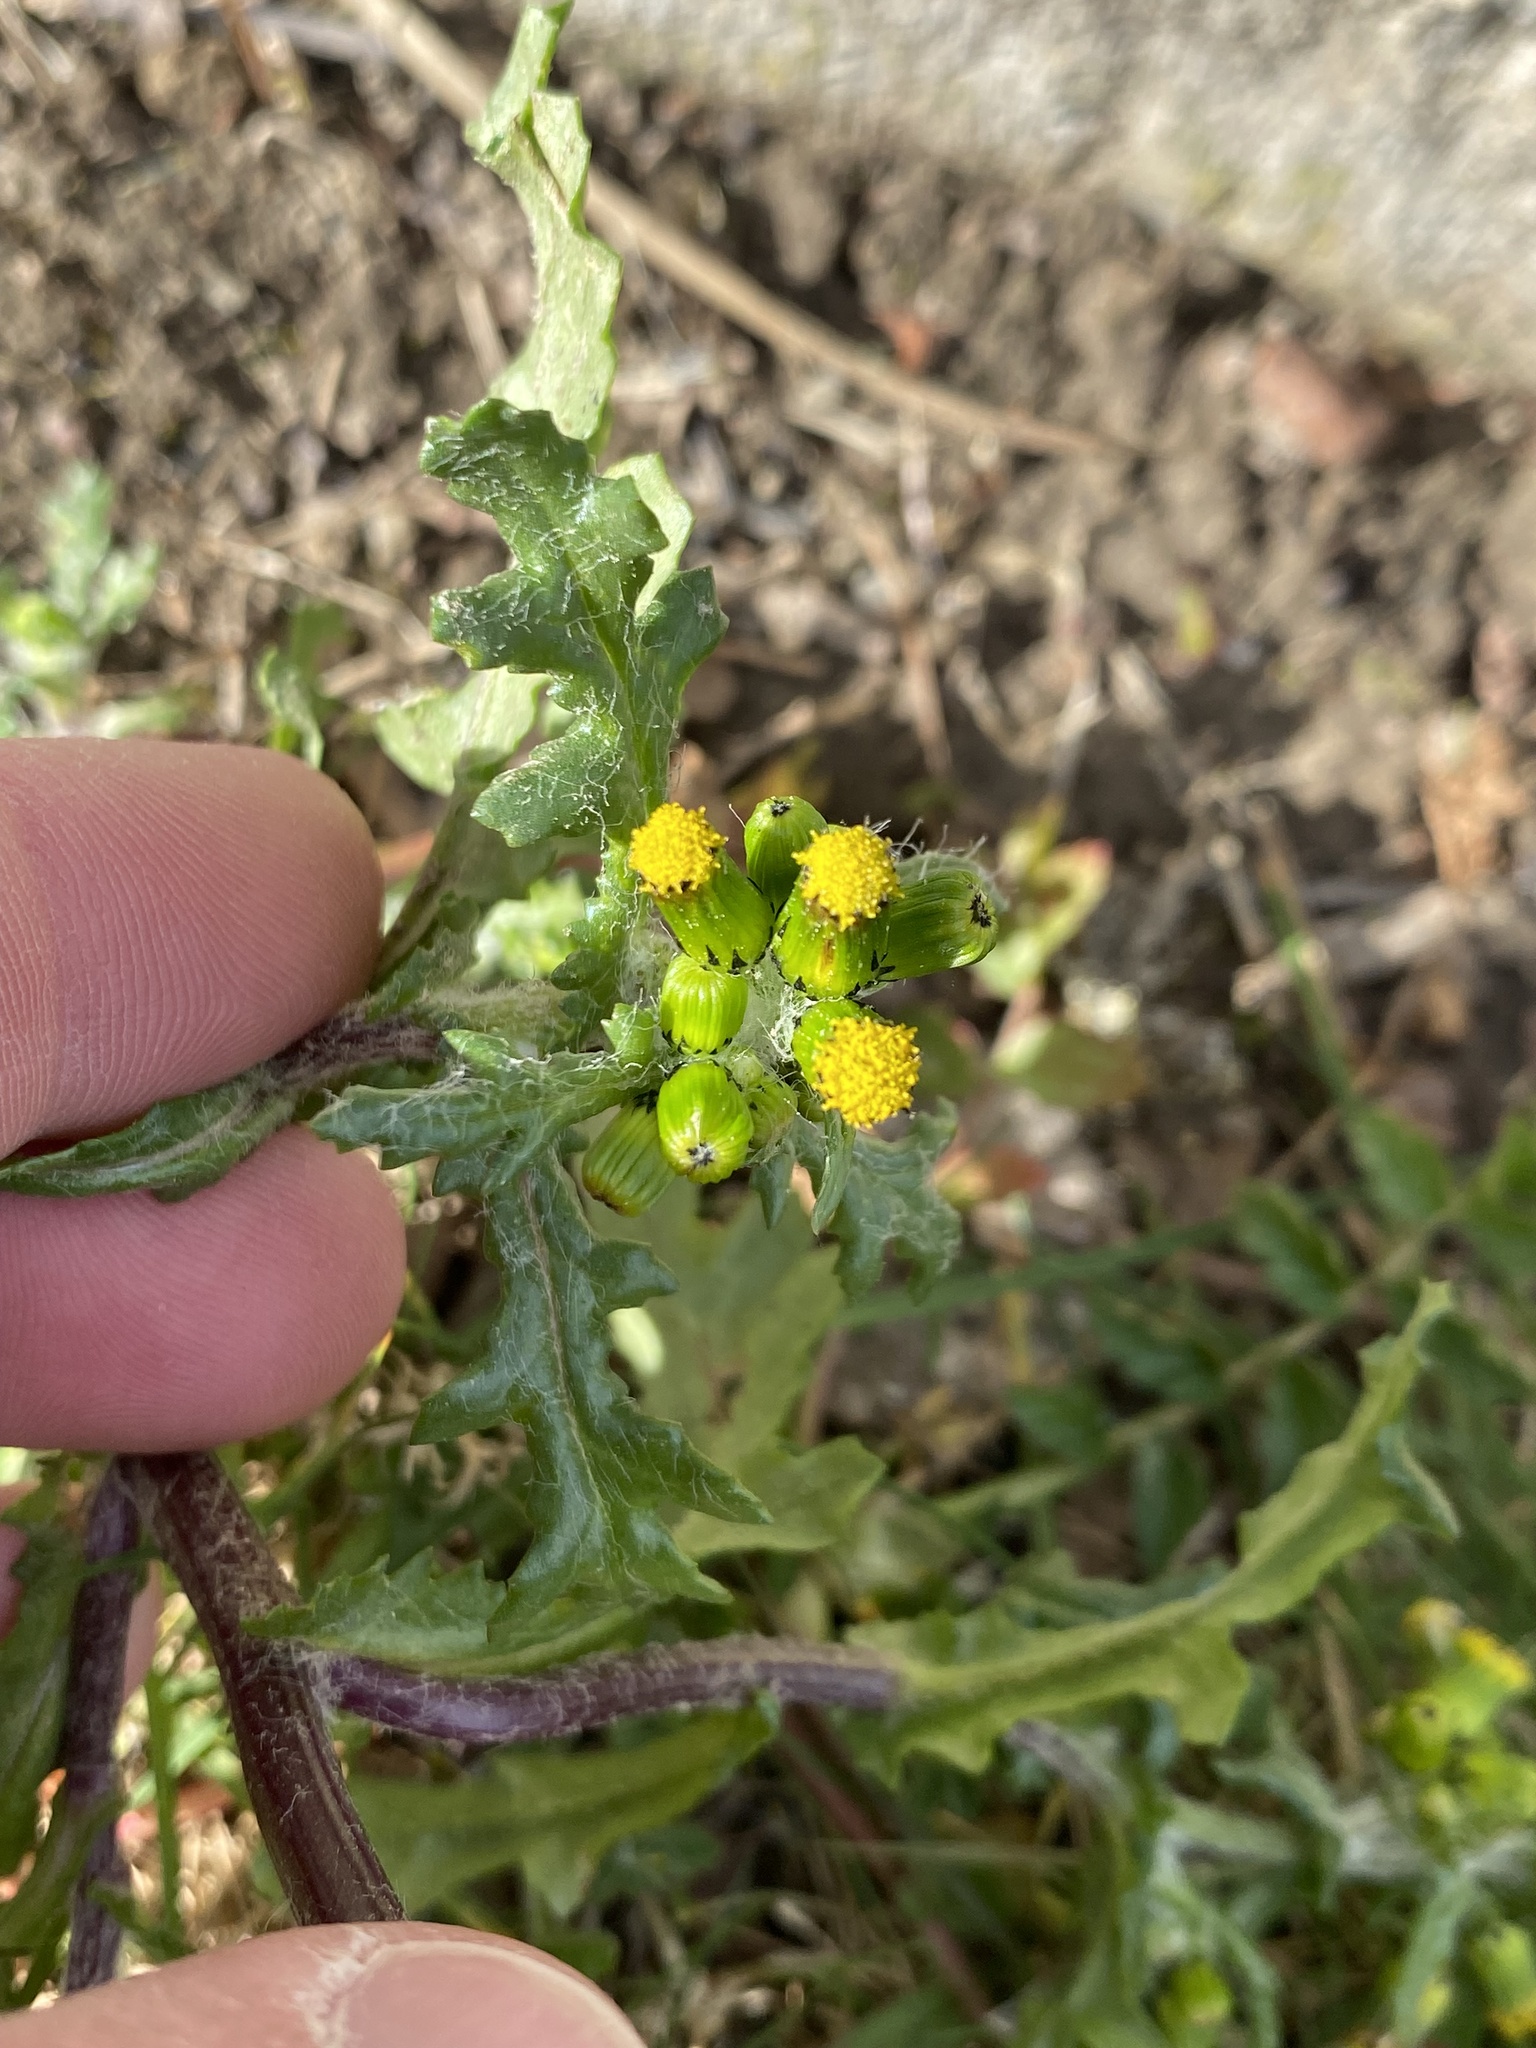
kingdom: Plantae
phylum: Tracheophyta
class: Magnoliopsida
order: Asterales
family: Asteraceae
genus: Senecio
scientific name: Senecio vulgaris
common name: Old-man-in-the-spring
